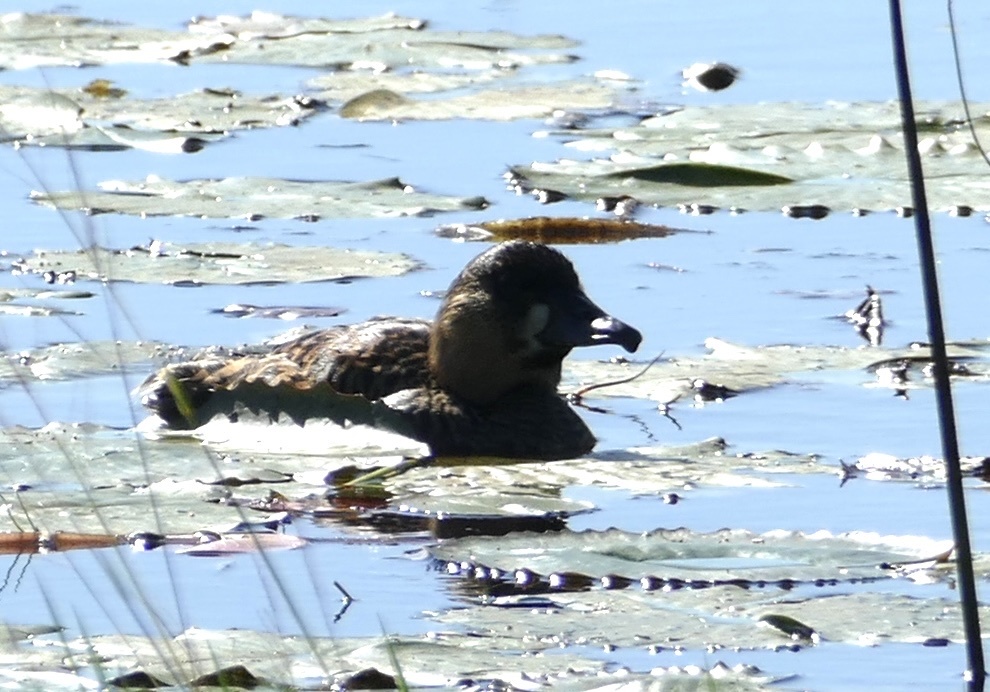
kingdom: Animalia
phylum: Chordata
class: Aves
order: Anseriformes
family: Anatidae
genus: Thalassornis
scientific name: Thalassornis leuconotus
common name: White-backed duck
